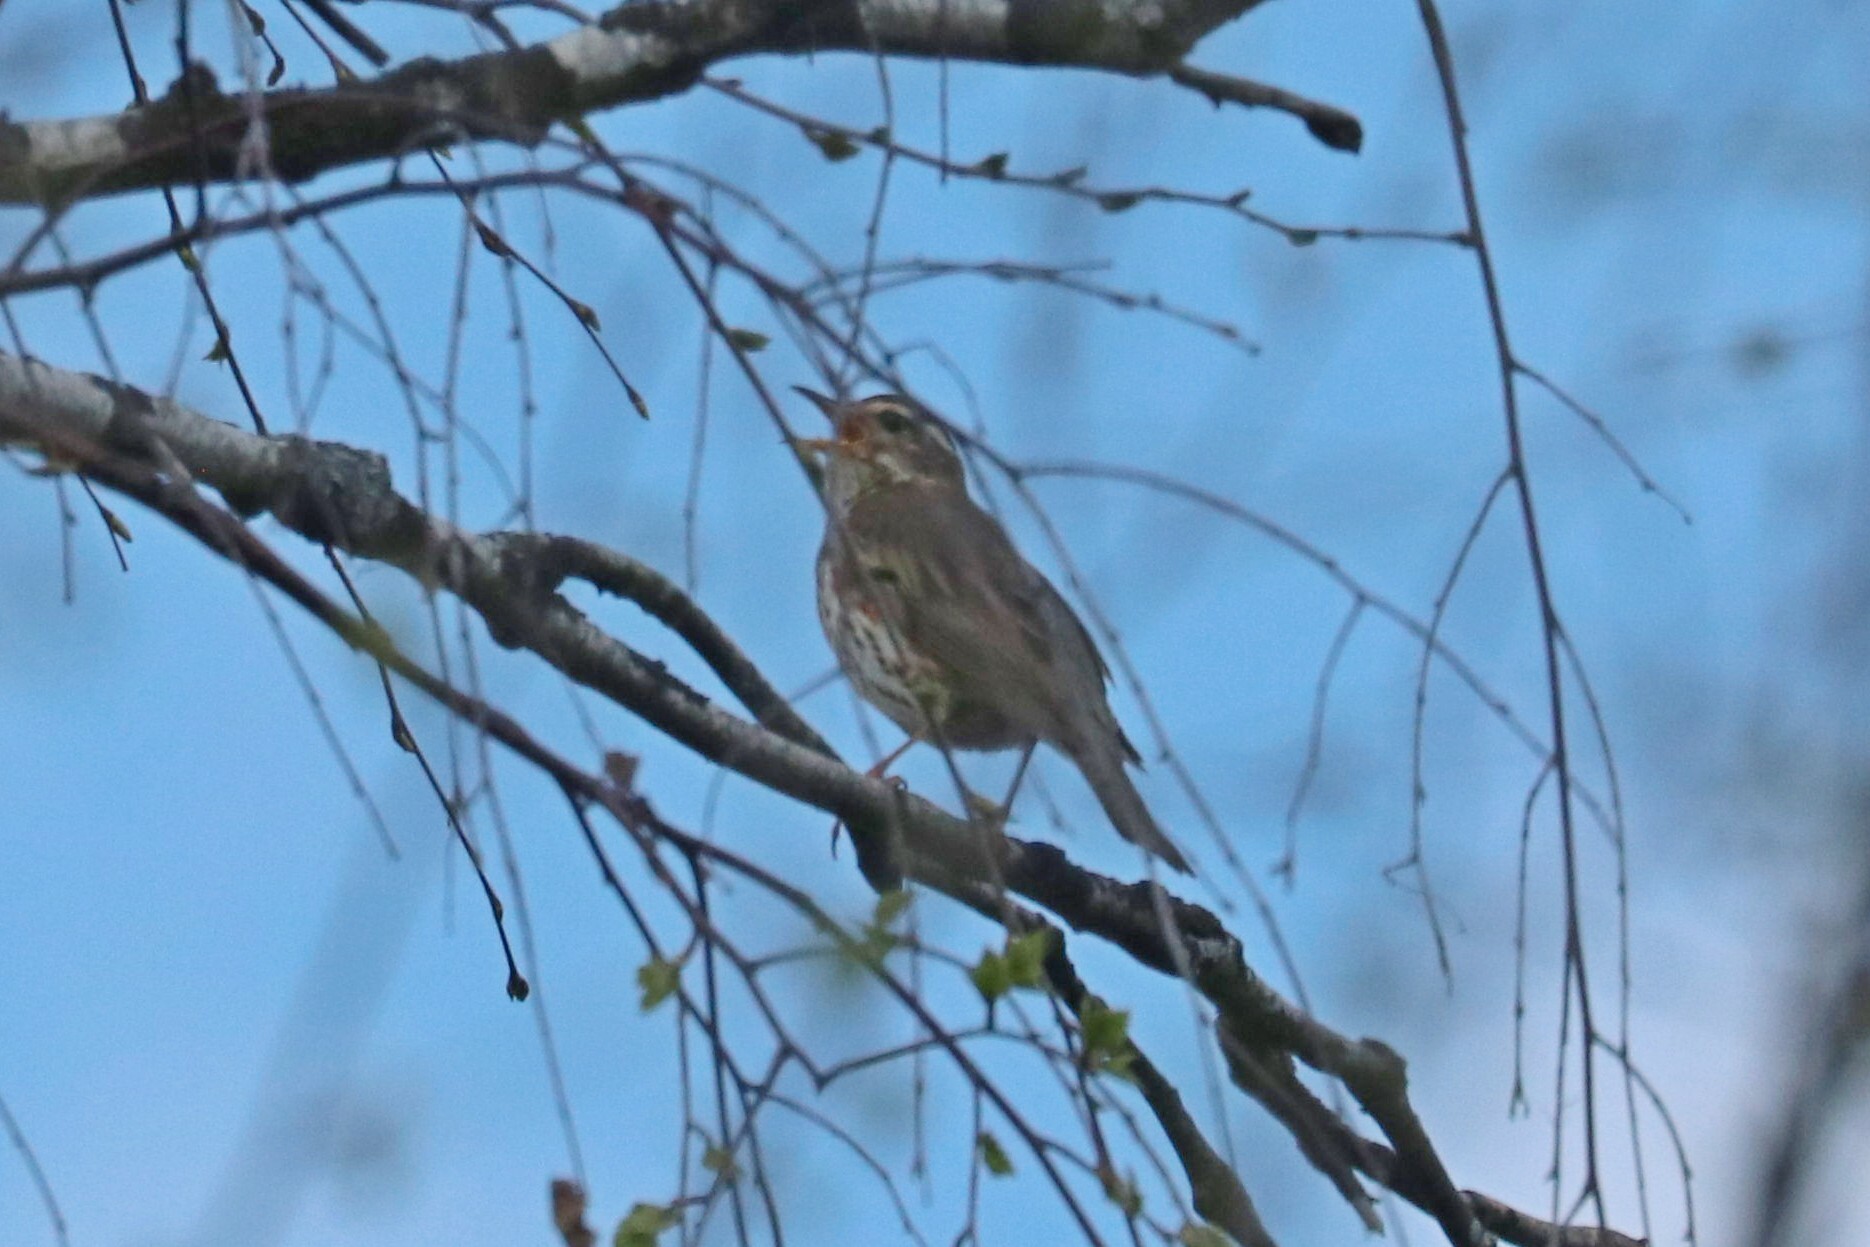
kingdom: Animalia
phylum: Chordata
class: Aves
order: Passeriformes
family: Turdidae
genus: Turdus
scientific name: Turdus iliacus
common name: Redwing
